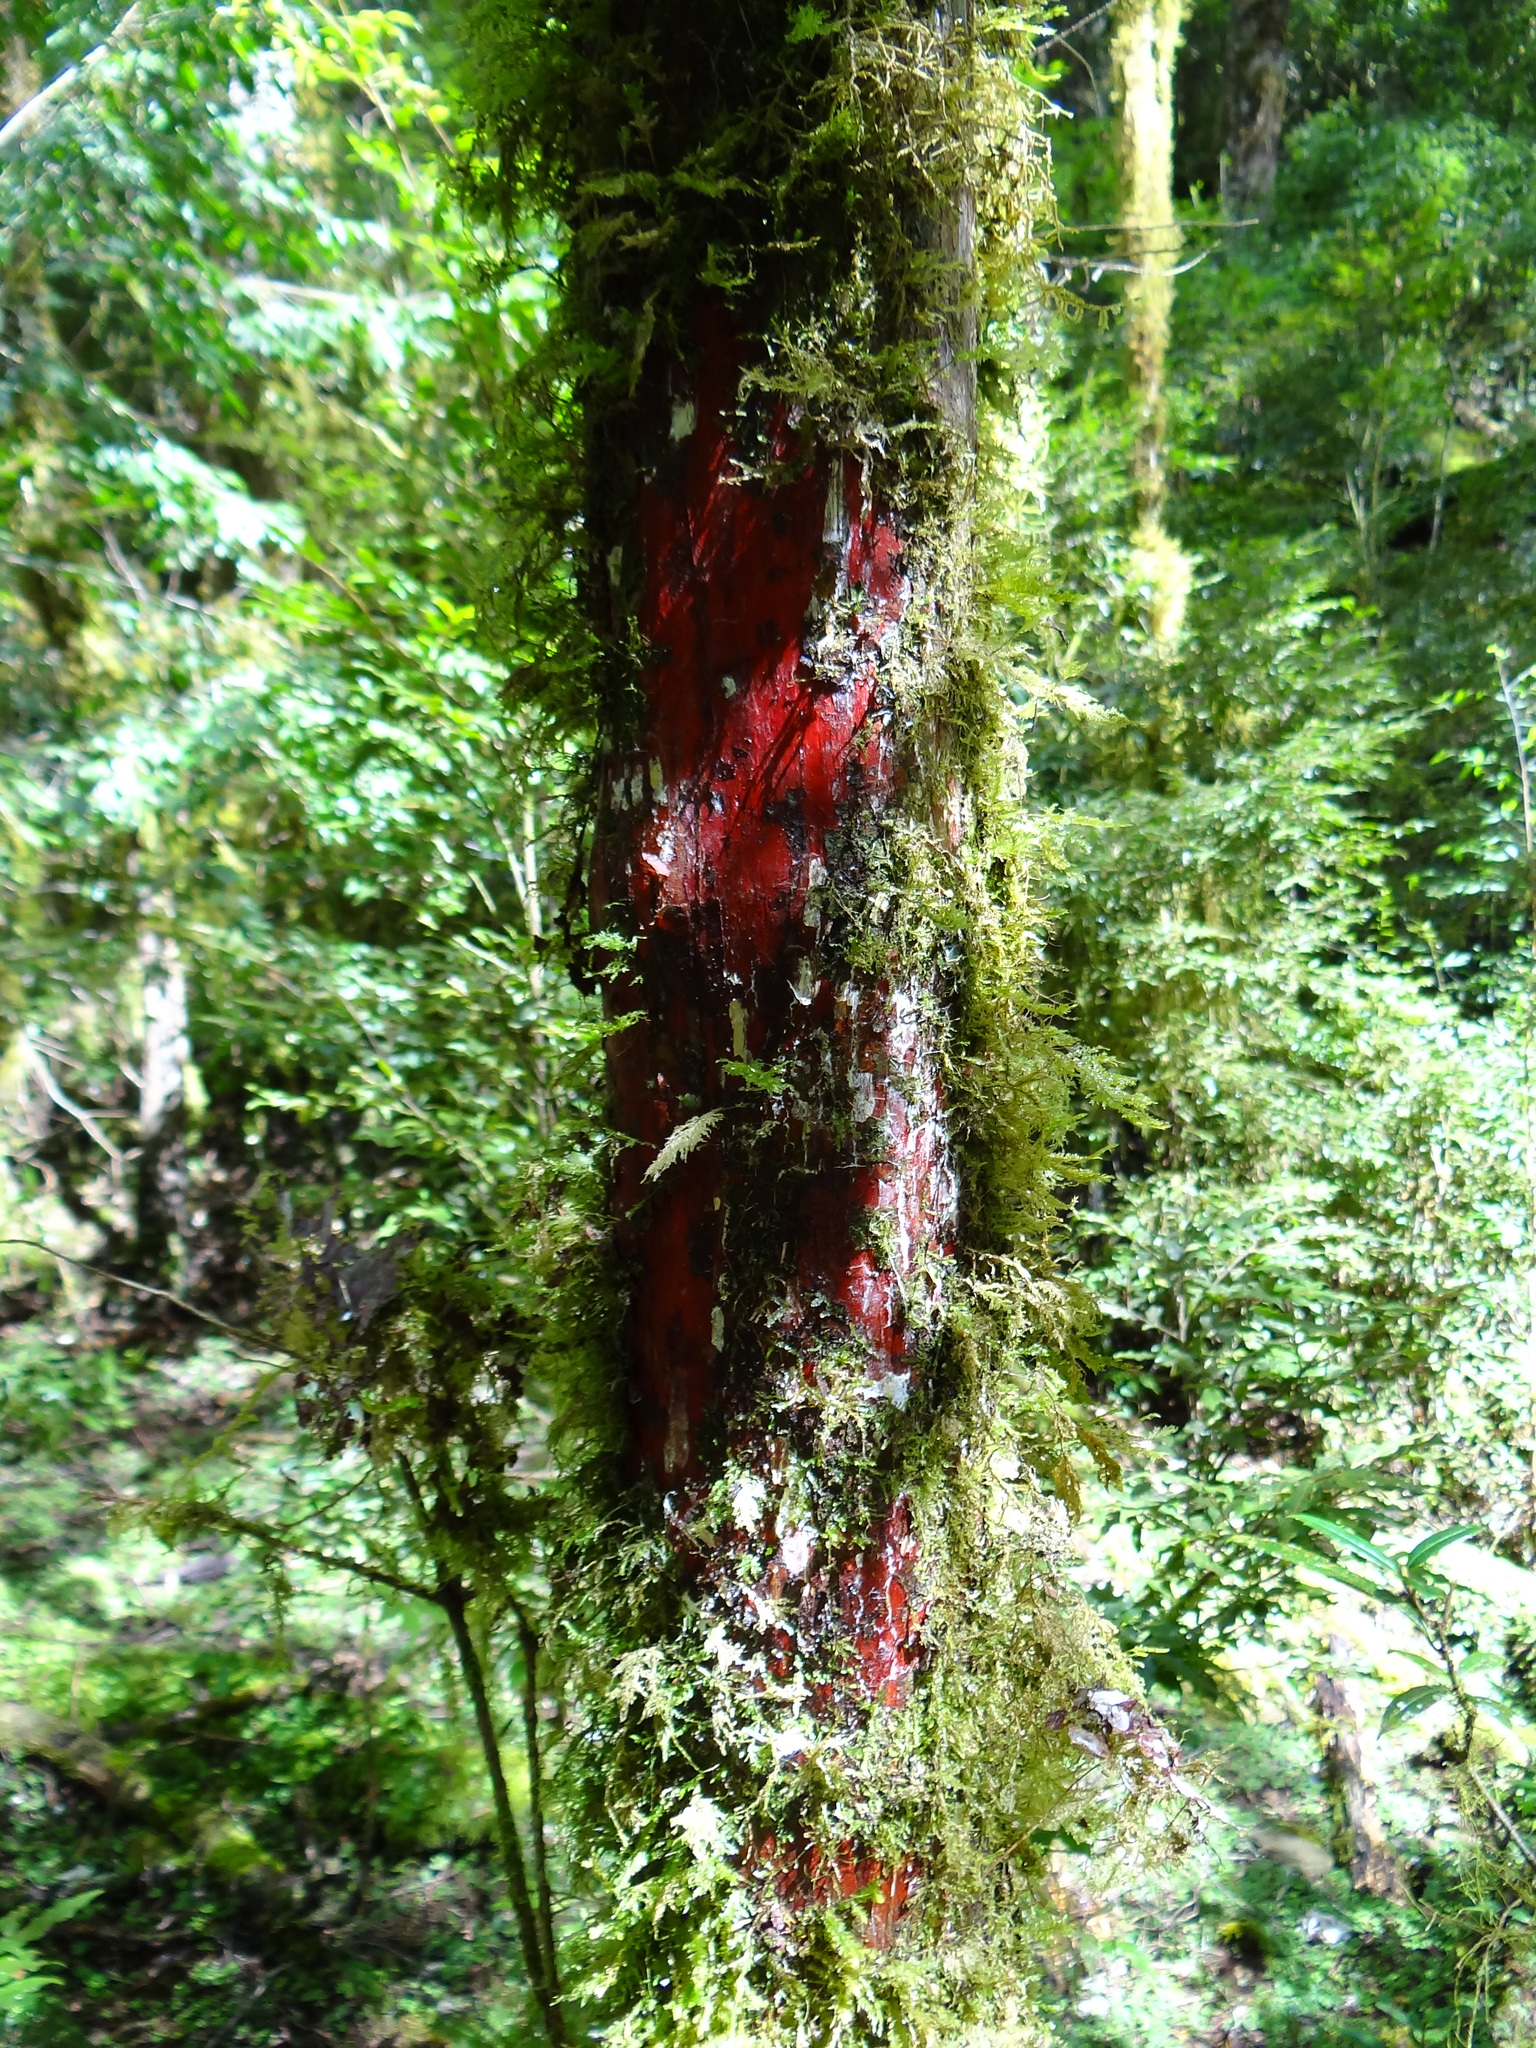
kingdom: Plantae
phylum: Tracheophyta
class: Pinopsida
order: Pinales
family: Cephalotaxaceae
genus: Cephalotaxus
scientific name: Cephalotaxus harringtonii
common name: Harrington's plum yew
